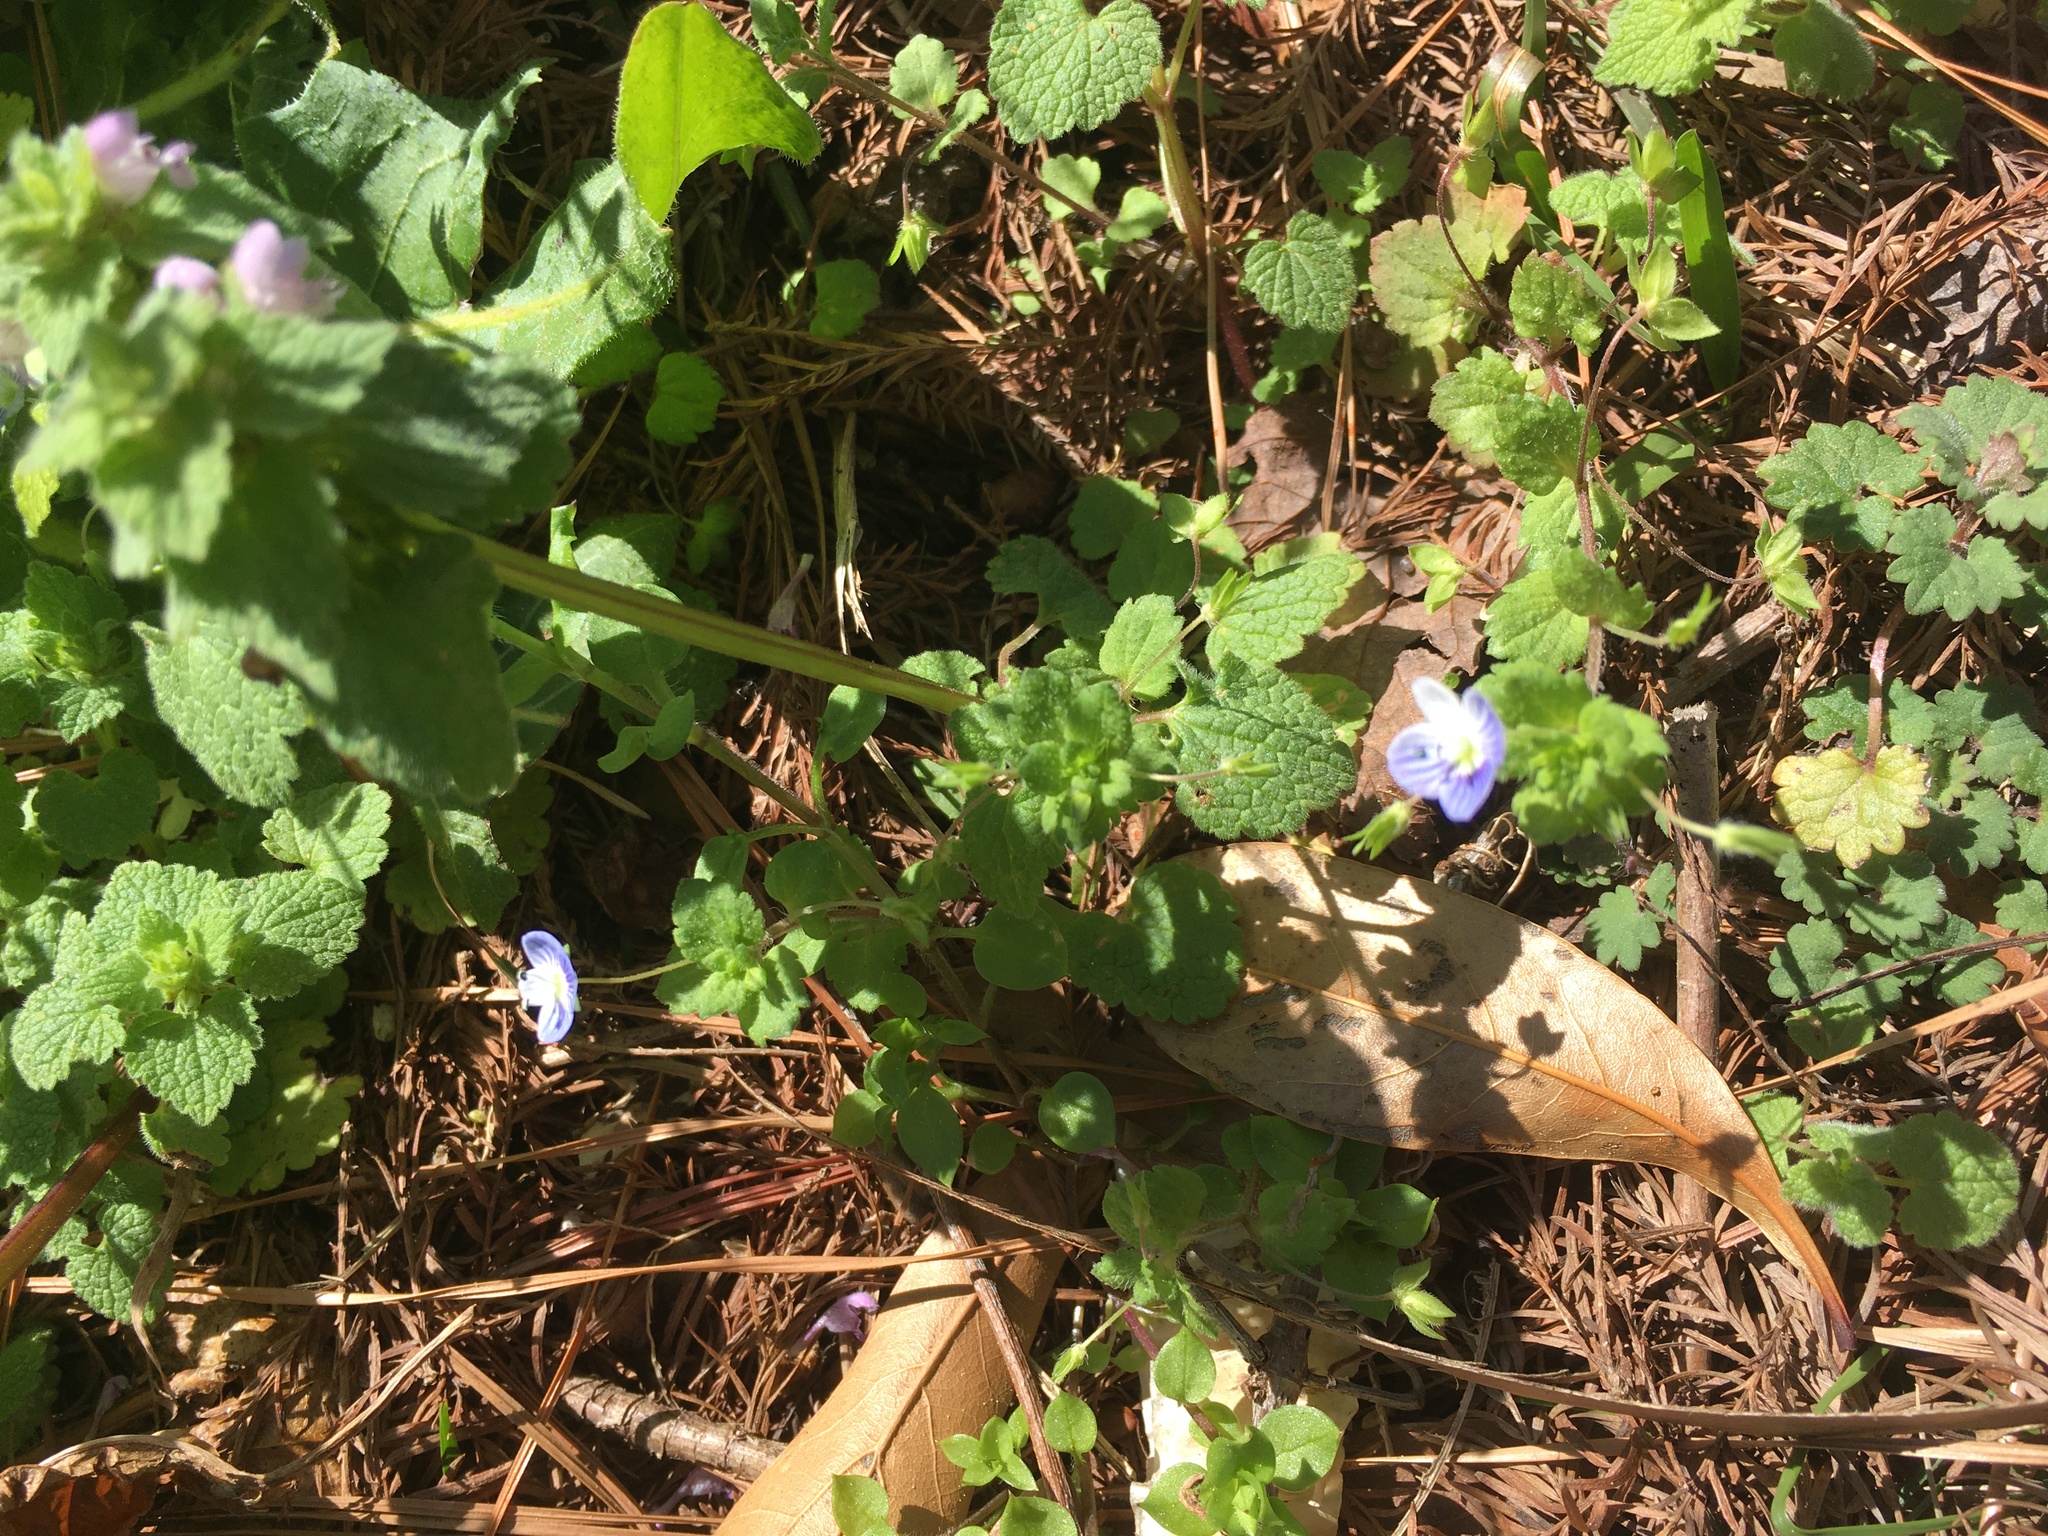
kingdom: Plantae
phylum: Tracheophyta
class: Magnoliopsida
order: Lamiales
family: Plantaginaceae
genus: Veronica
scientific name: Veronica persica
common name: Common field-speedwell
